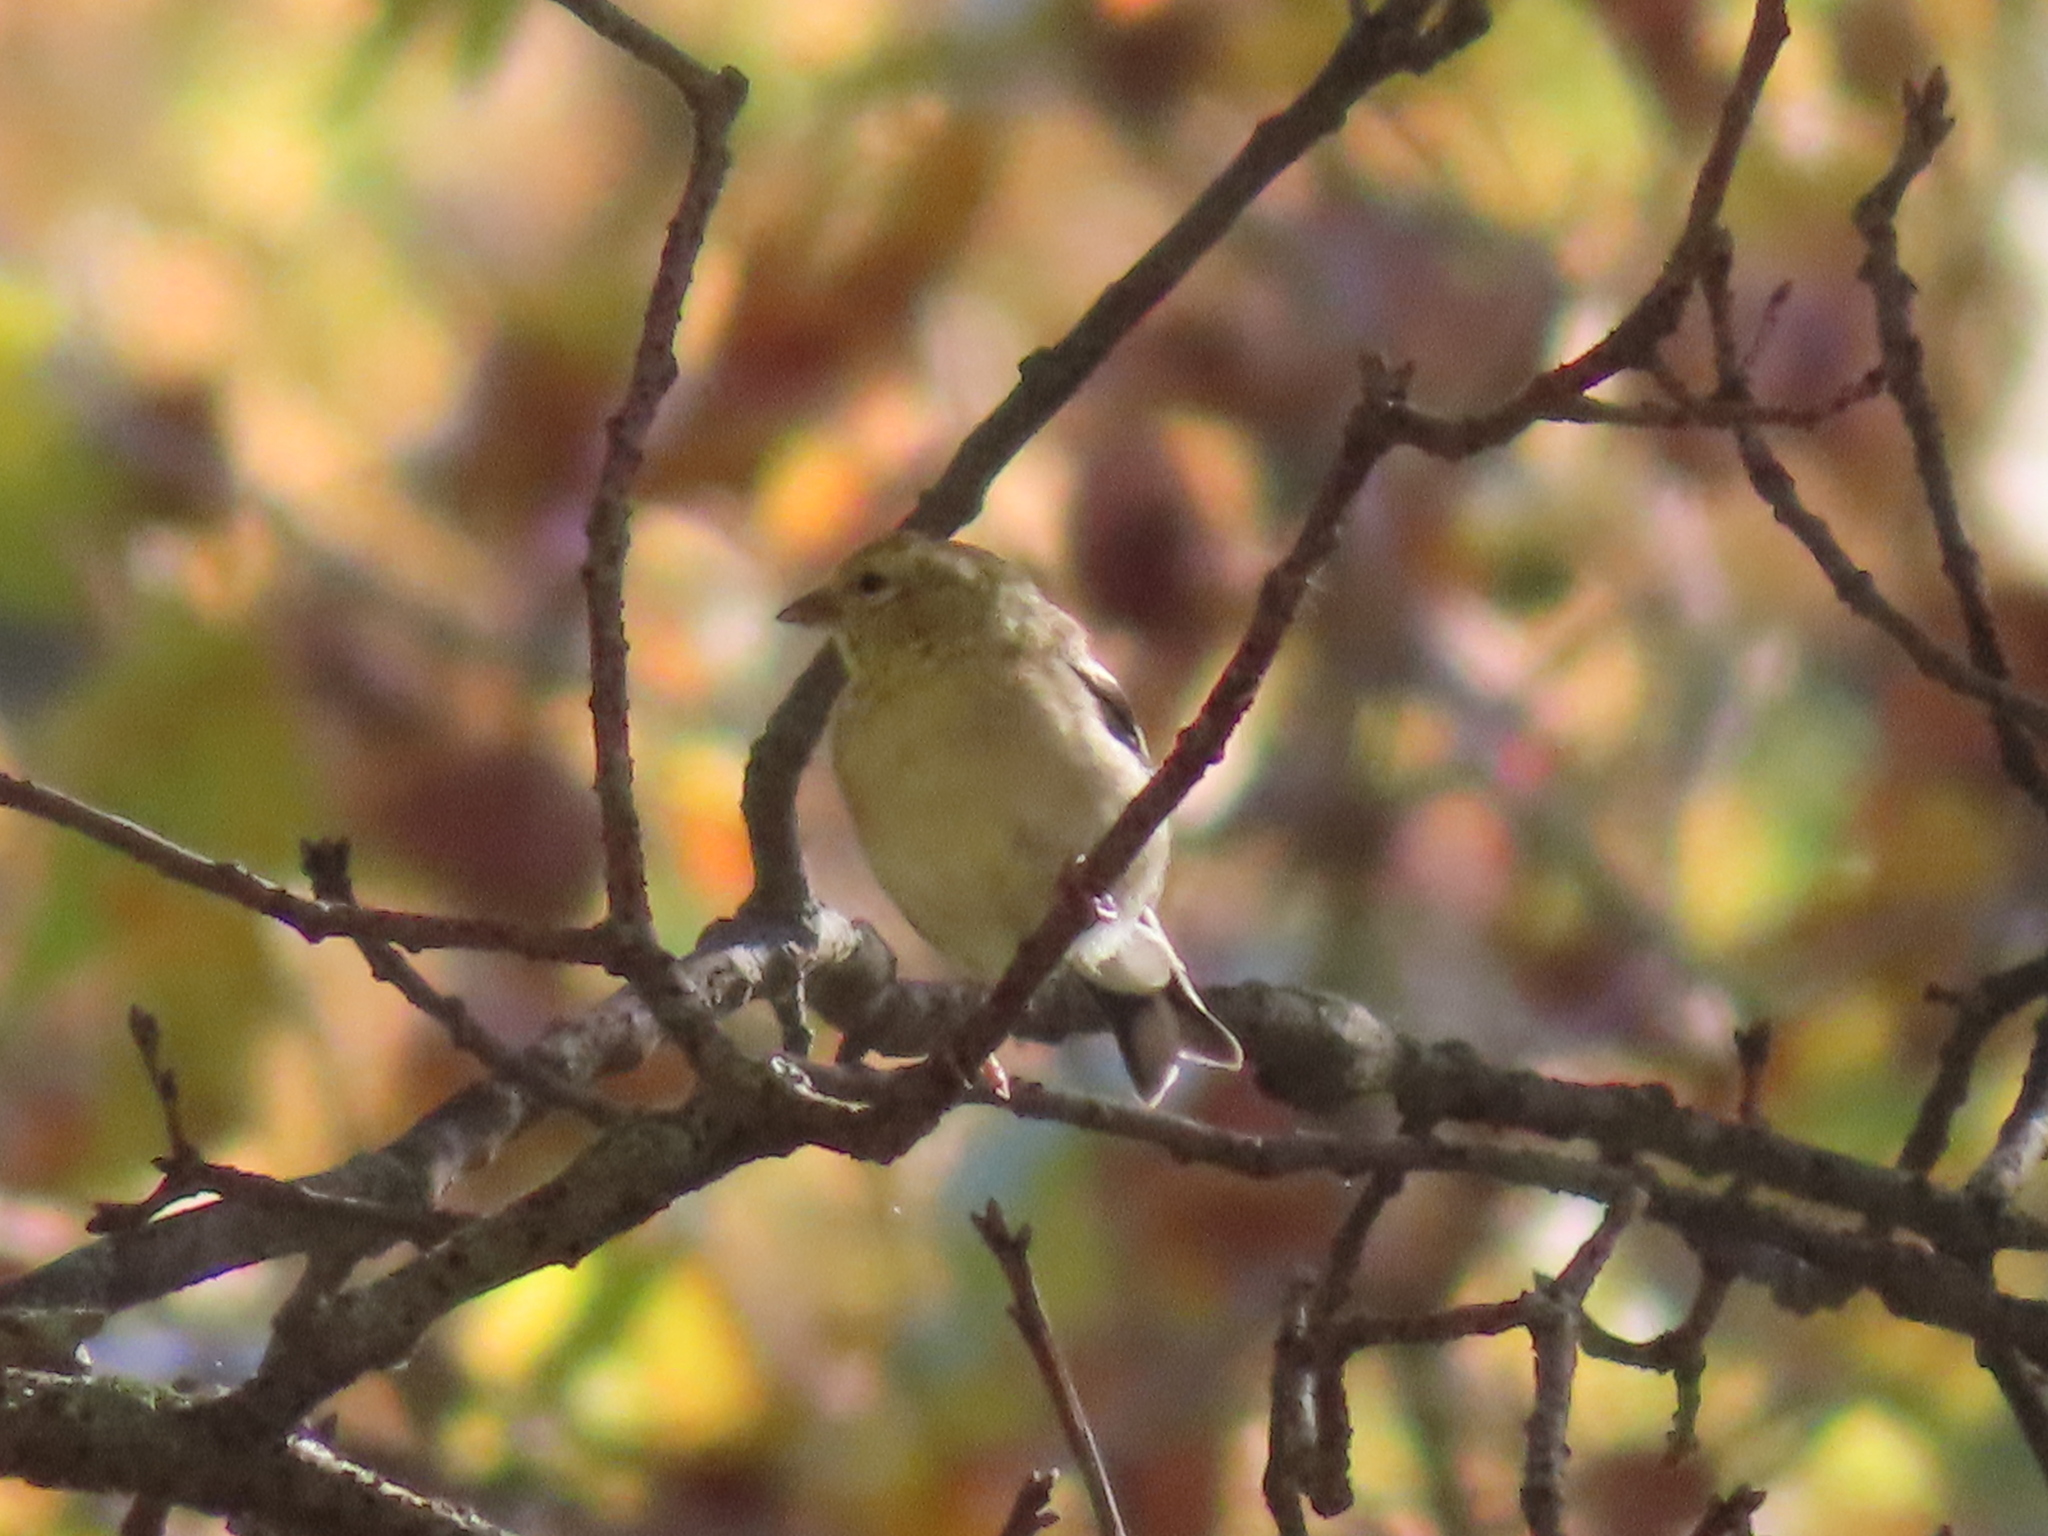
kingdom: Animalia
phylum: Chordata
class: Aves
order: Passeriformes
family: Fringillidae
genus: Spinus
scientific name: Spinus tristis
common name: American goldfinch
